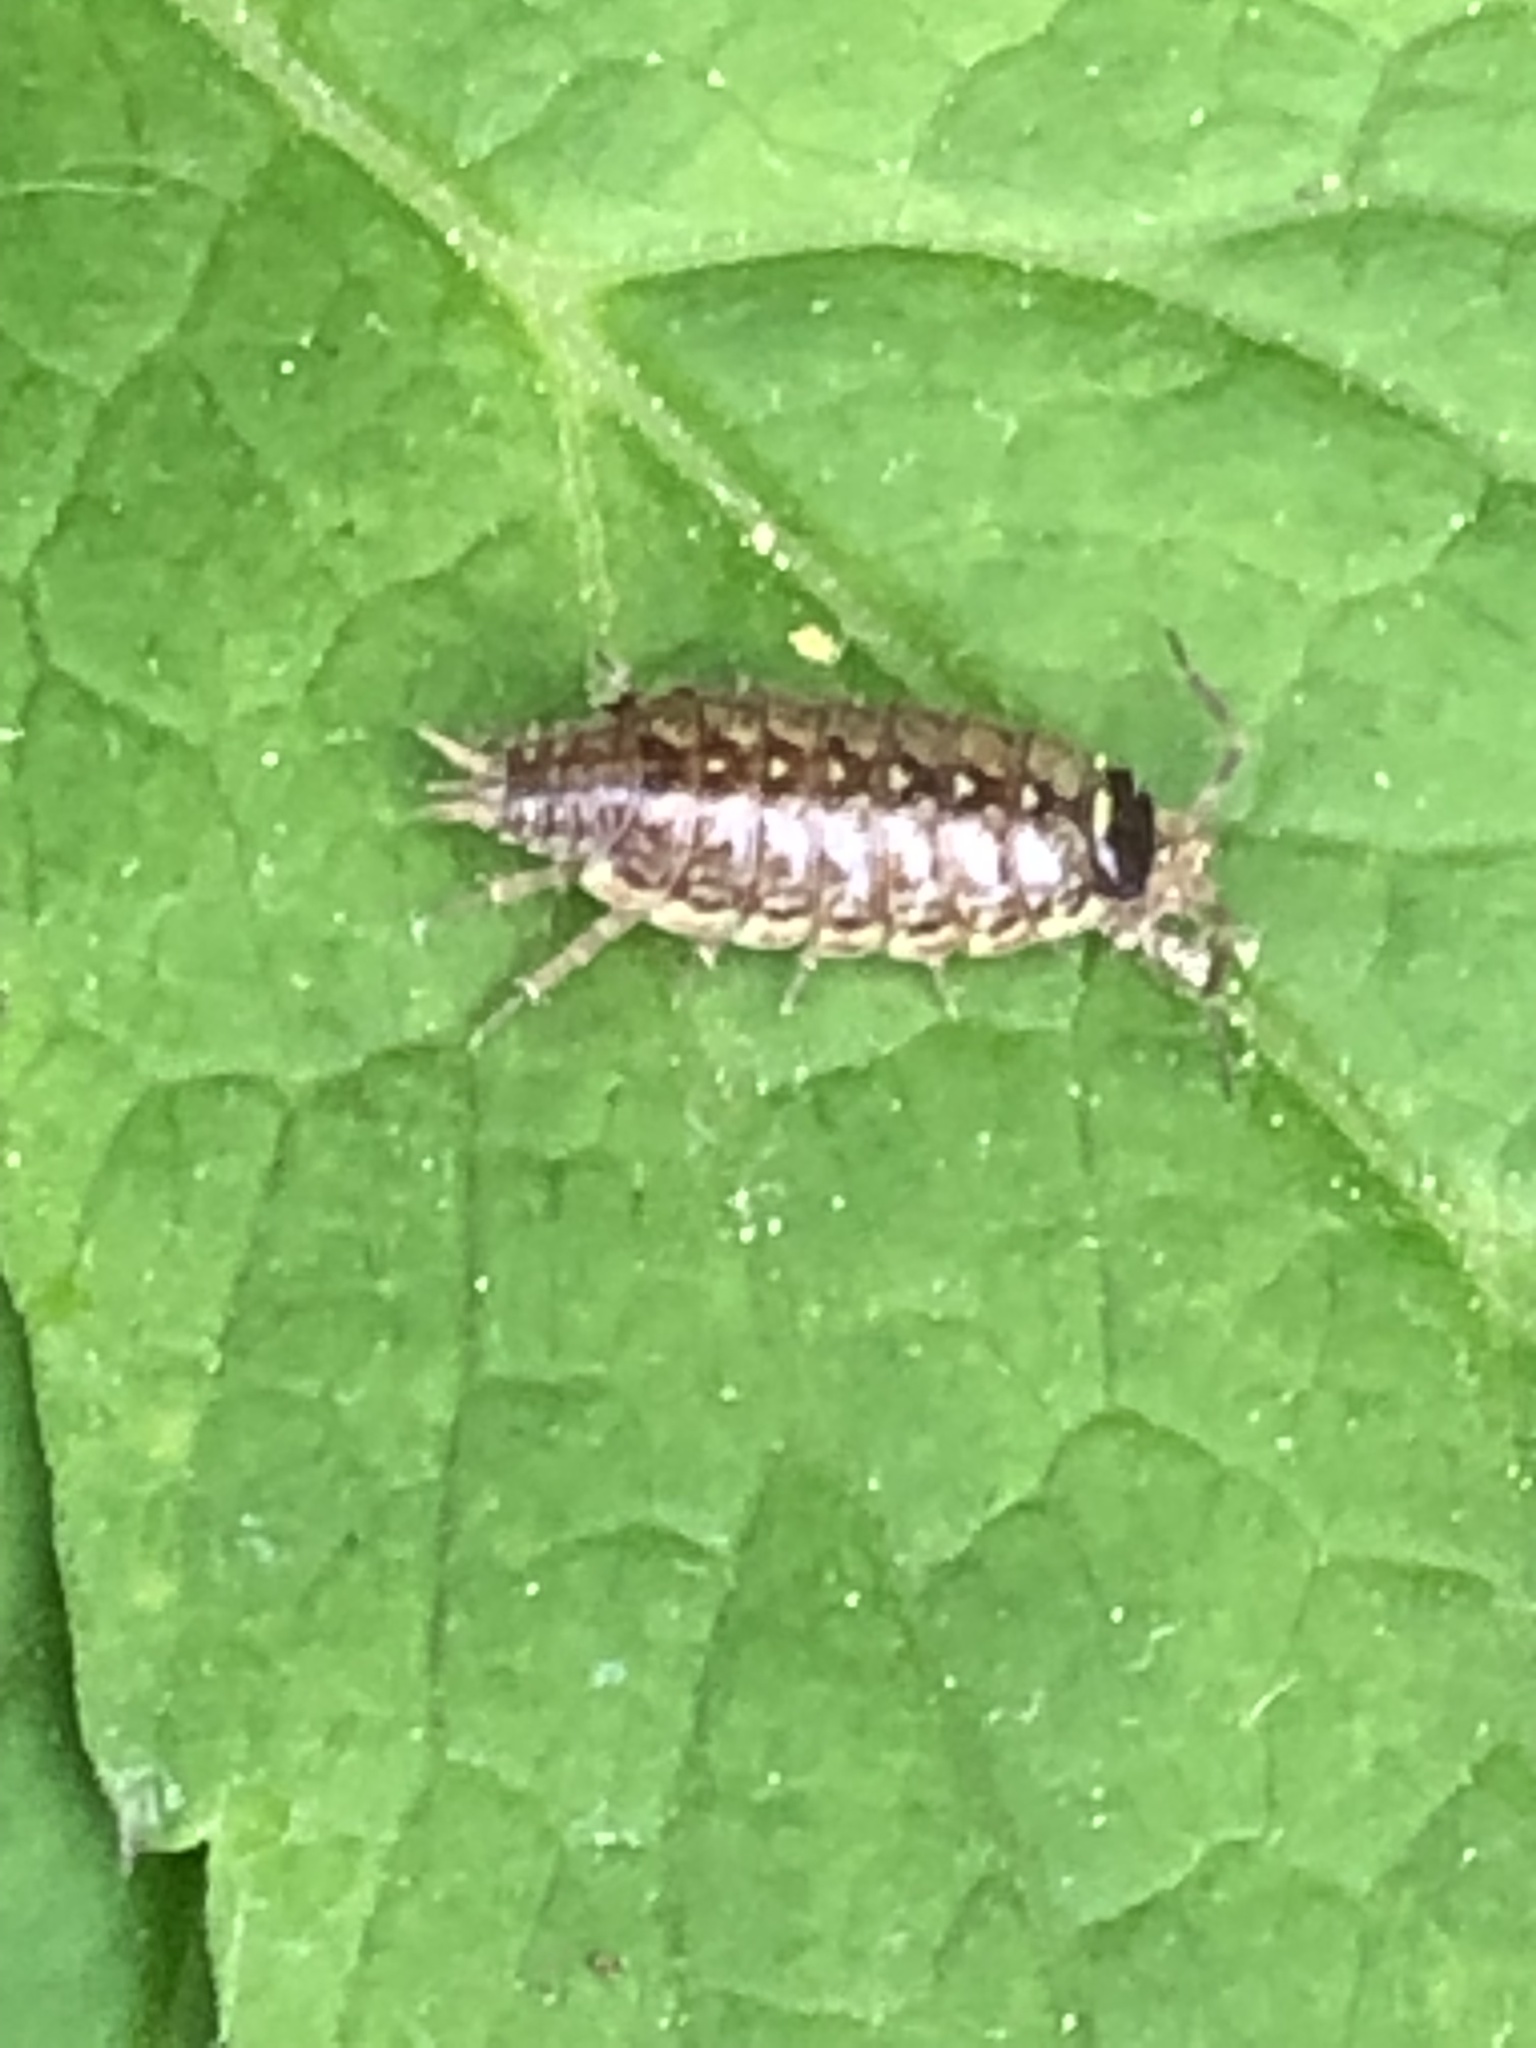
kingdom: Animalia
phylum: Arthropoda
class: Malacostraca
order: Isopoda
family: Philosciidae
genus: Philoscia
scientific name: Philoscia muscorum
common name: Common striped woodlouse
